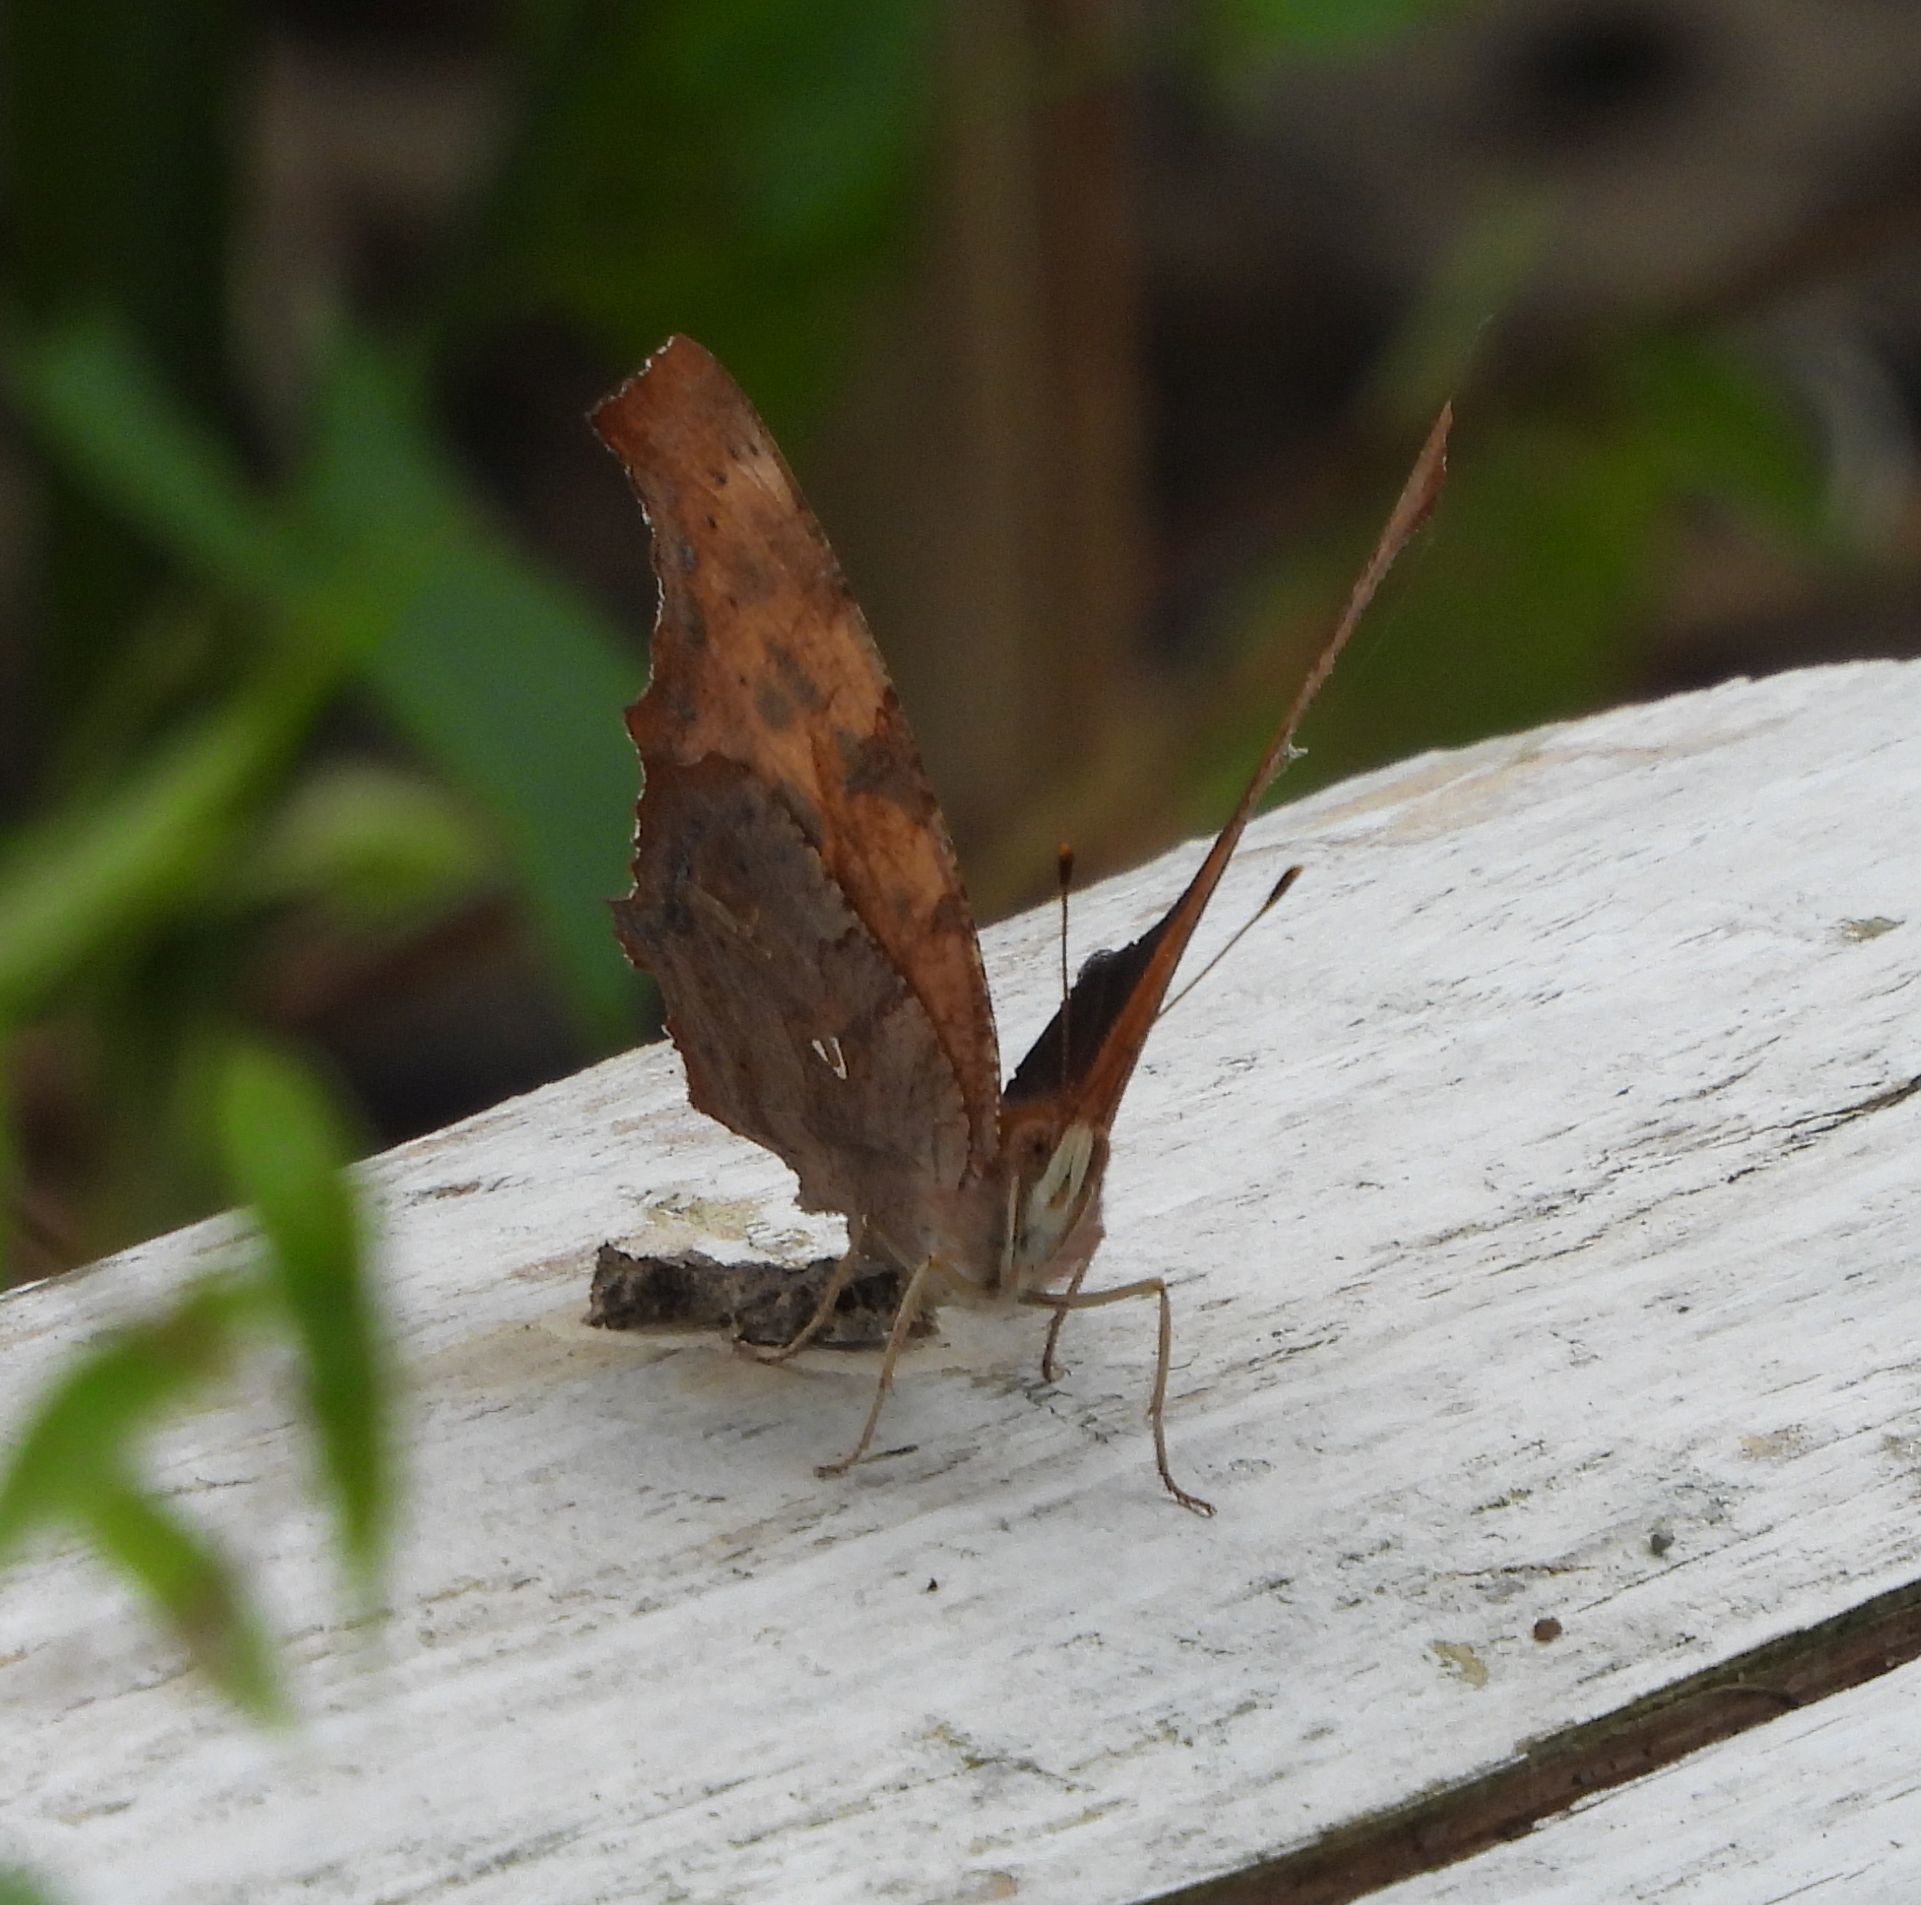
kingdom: Animalia
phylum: Arthropoda
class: Insecta
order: Lepidoptera
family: Nymphalidae
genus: Polygonia
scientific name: Polygonia interrogationis
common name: Question mark
